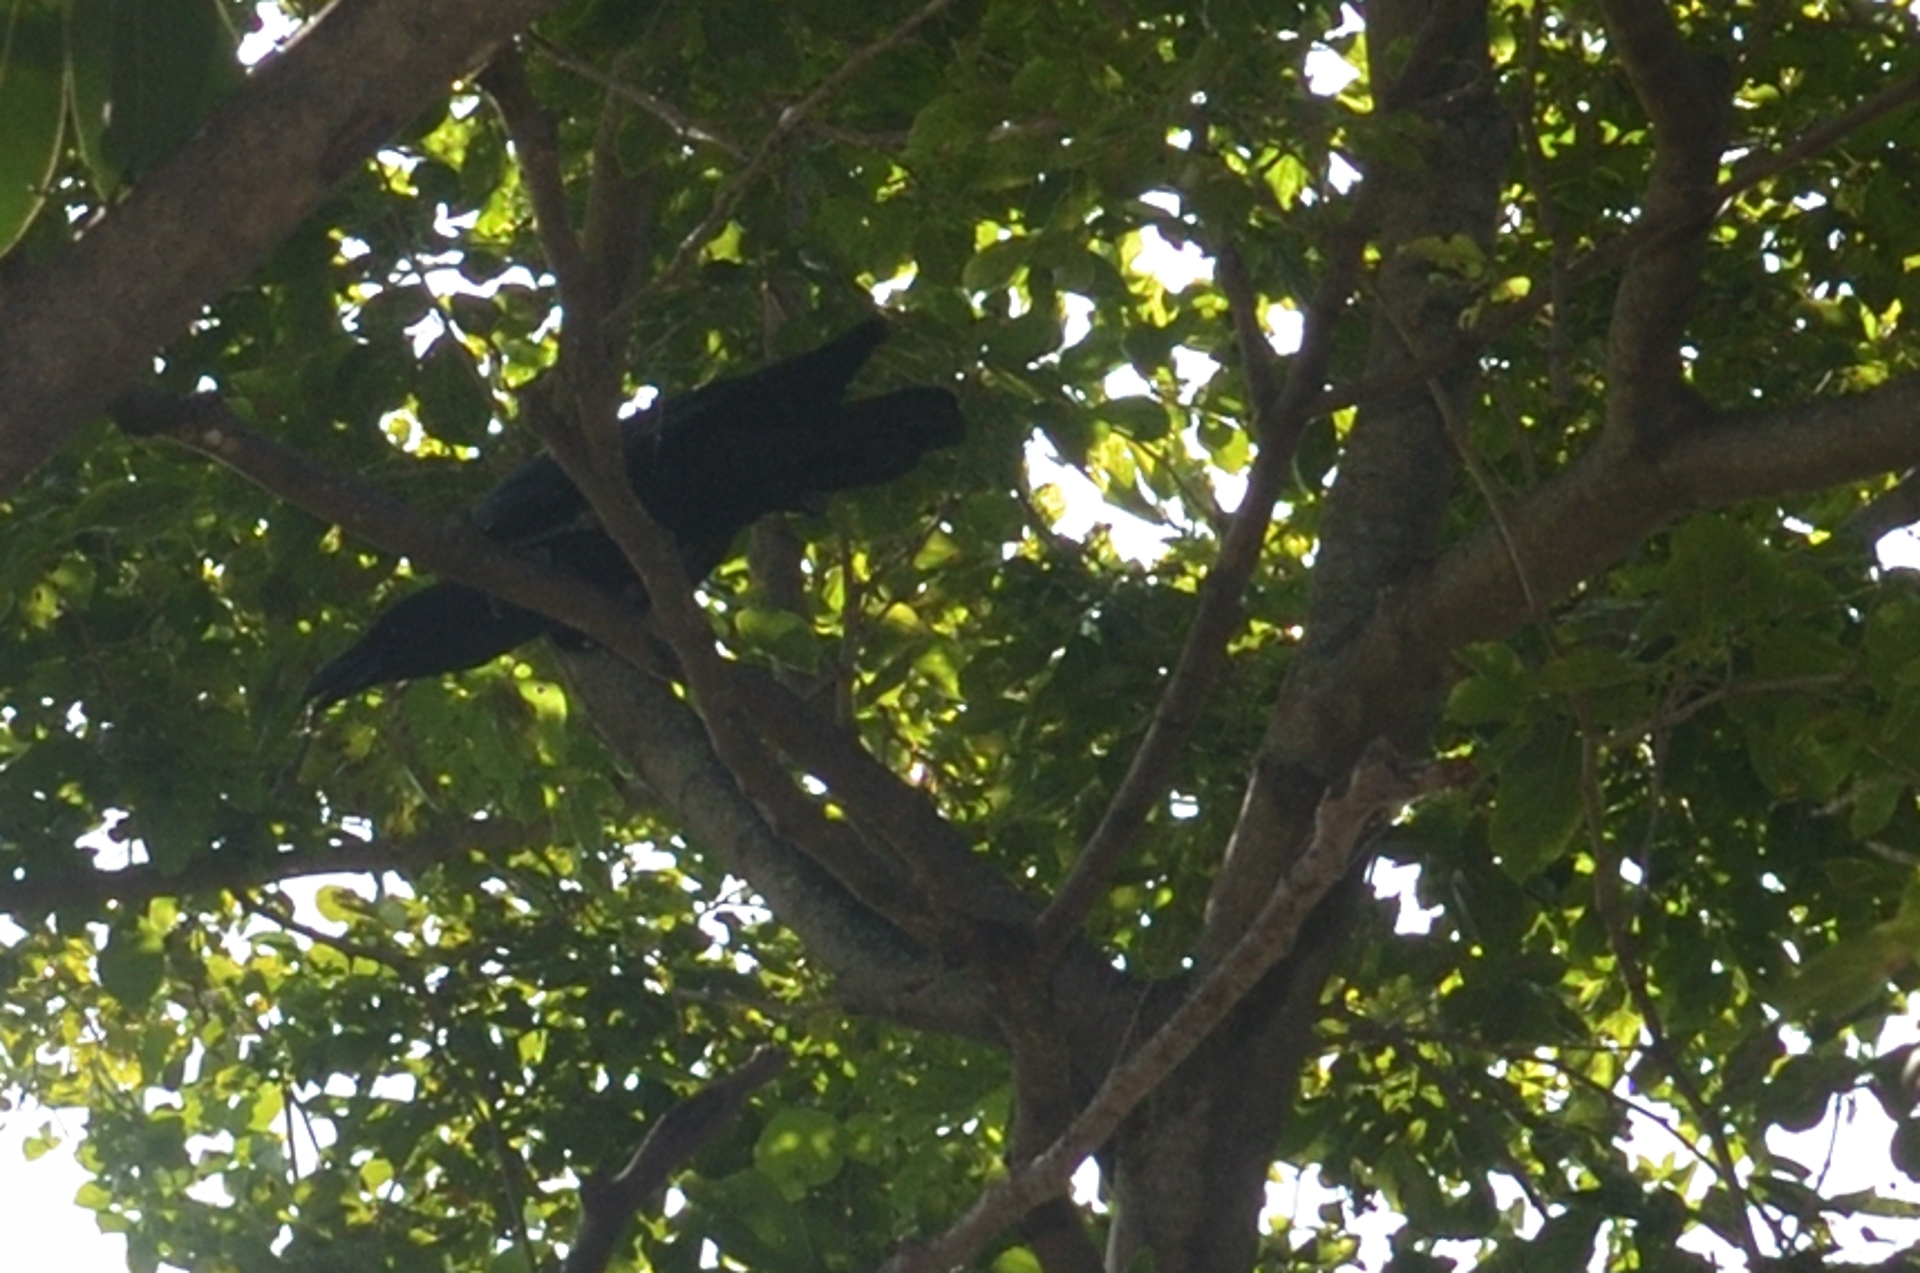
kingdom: Animalia
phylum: Chordata
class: Aves
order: Passeriformes
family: Corvidae
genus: Corvus
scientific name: Corvus macrorhynchos
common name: Large-billed crow
